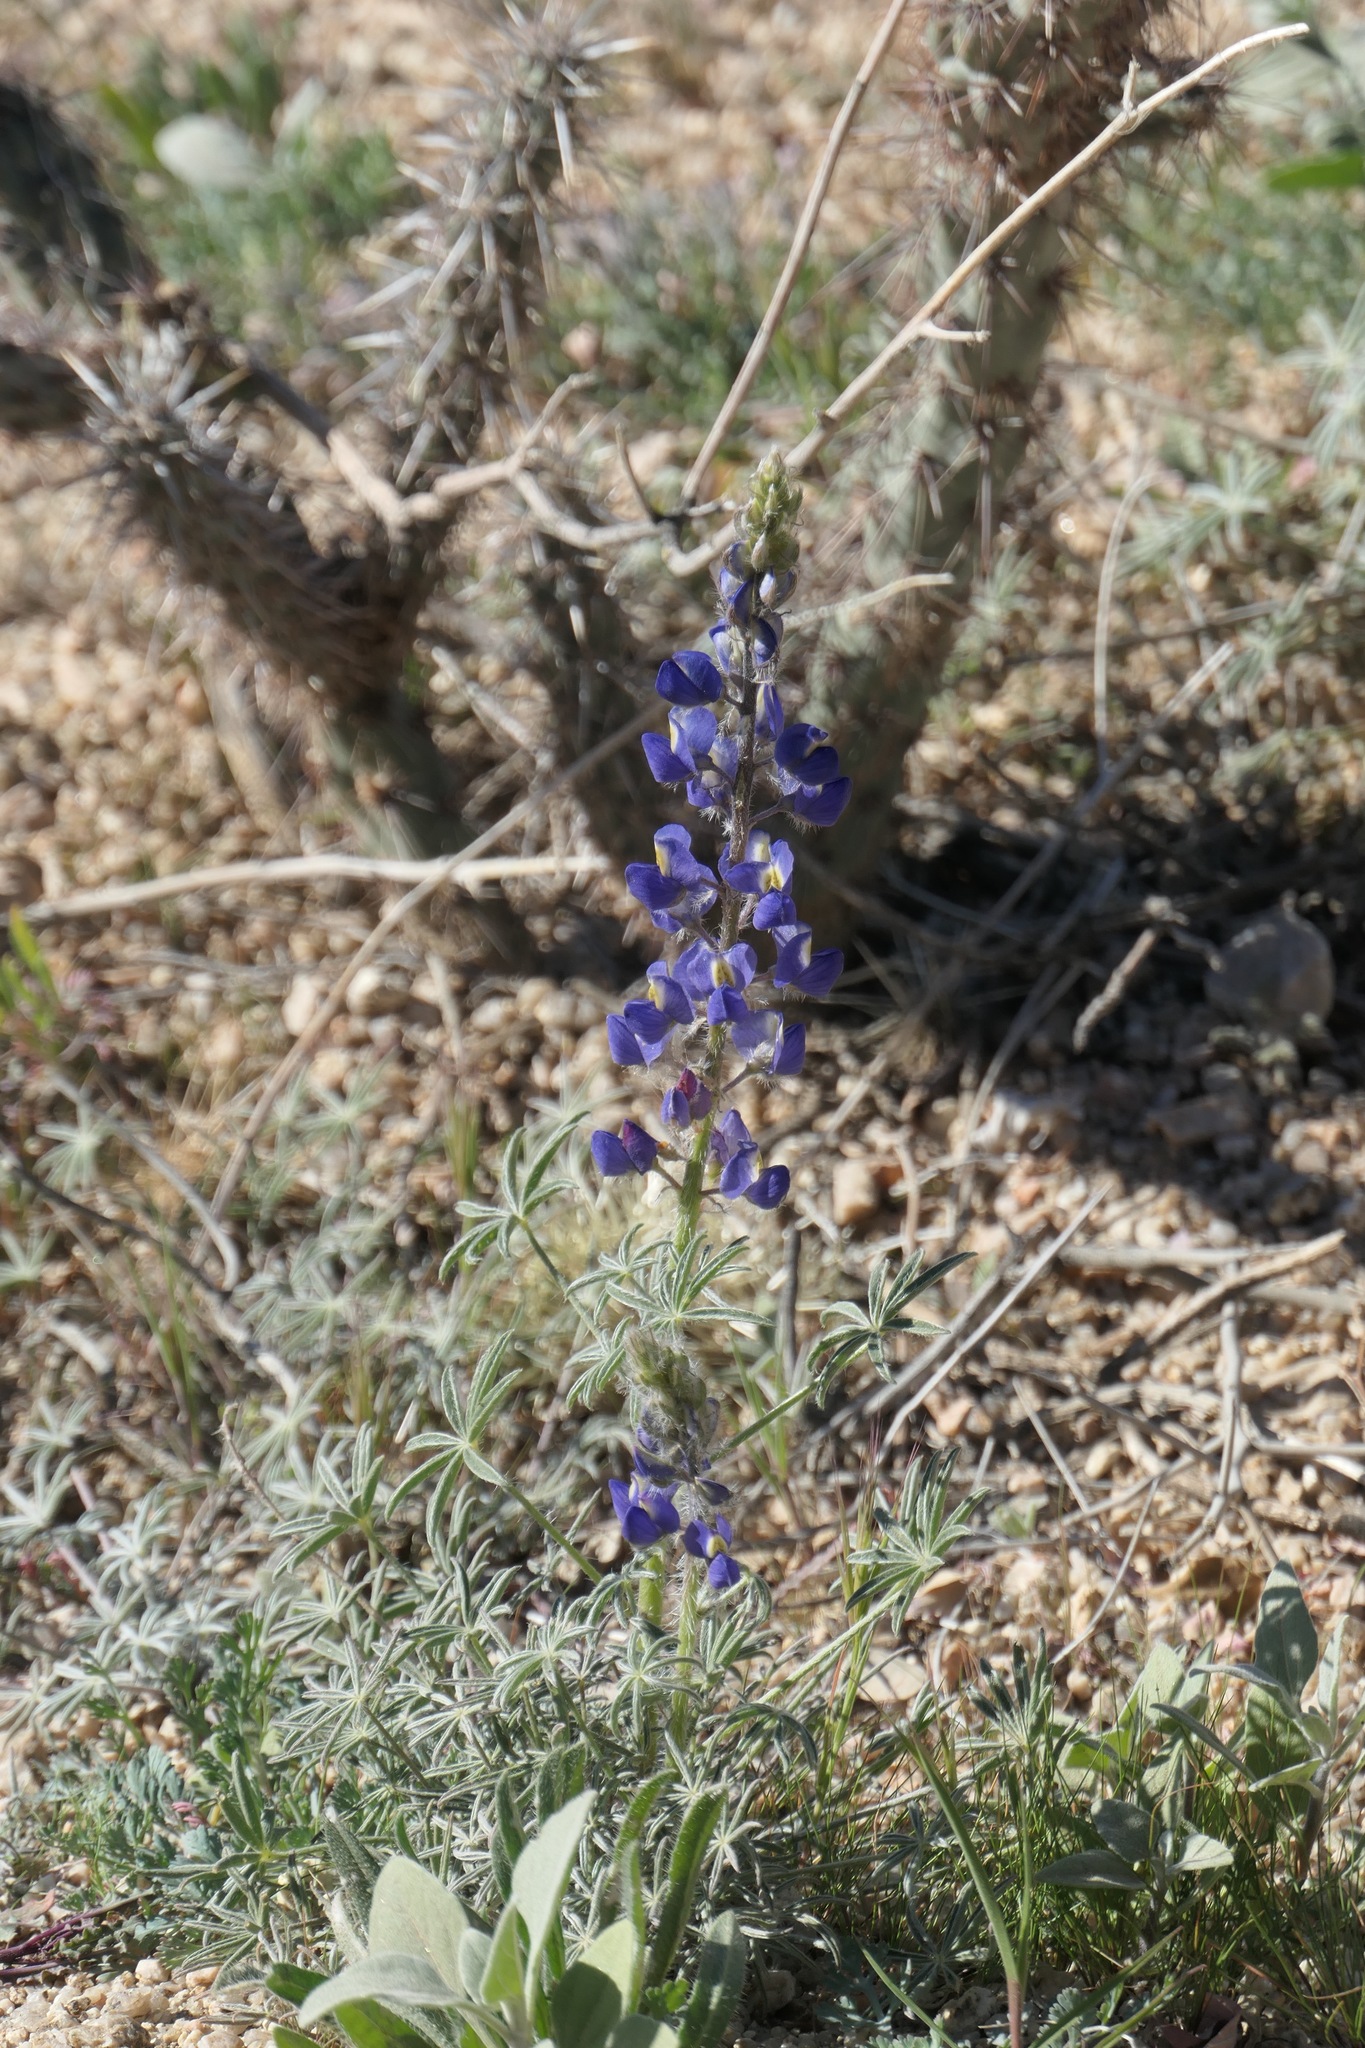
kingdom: Plantae
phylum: Tracheophyta
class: Magnoliopsida
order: Fabales
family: Fabaceae
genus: Lupinus
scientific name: Lupinus sparsiflorus
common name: Coulter's lupine
